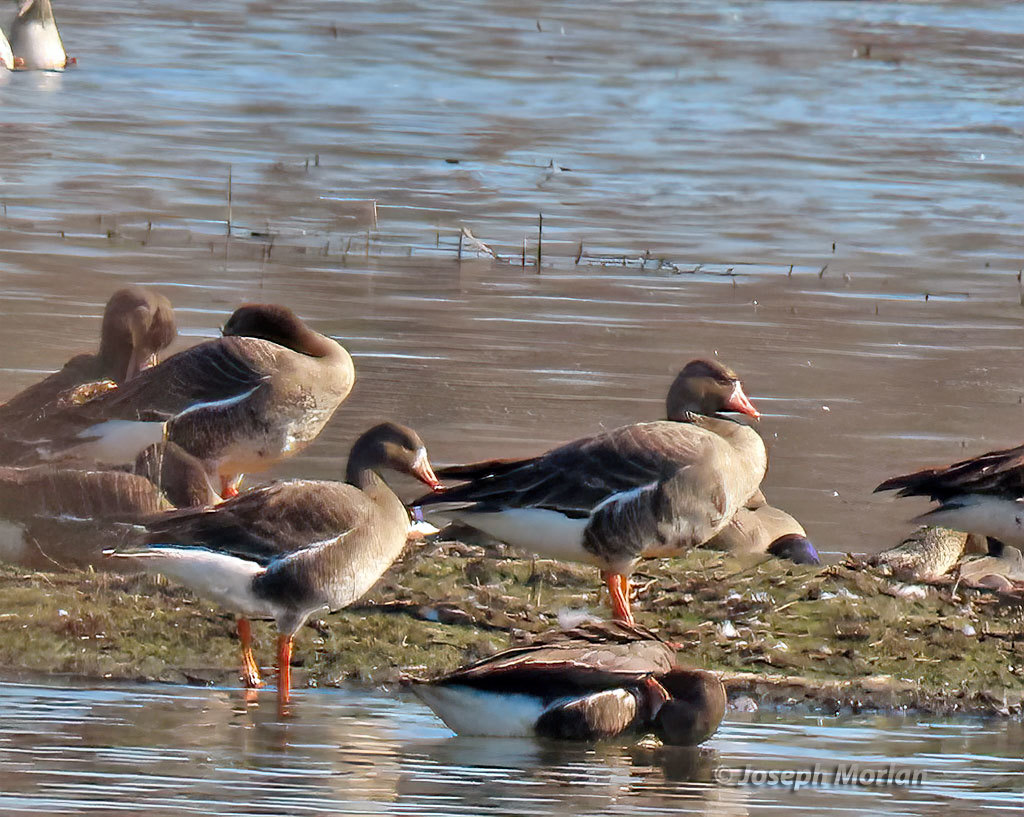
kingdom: Animalia
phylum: Chordata
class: Aves
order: Anseriformes
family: Anatidae
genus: Anser
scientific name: Anser albifrons
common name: Greater white-fronted goose
